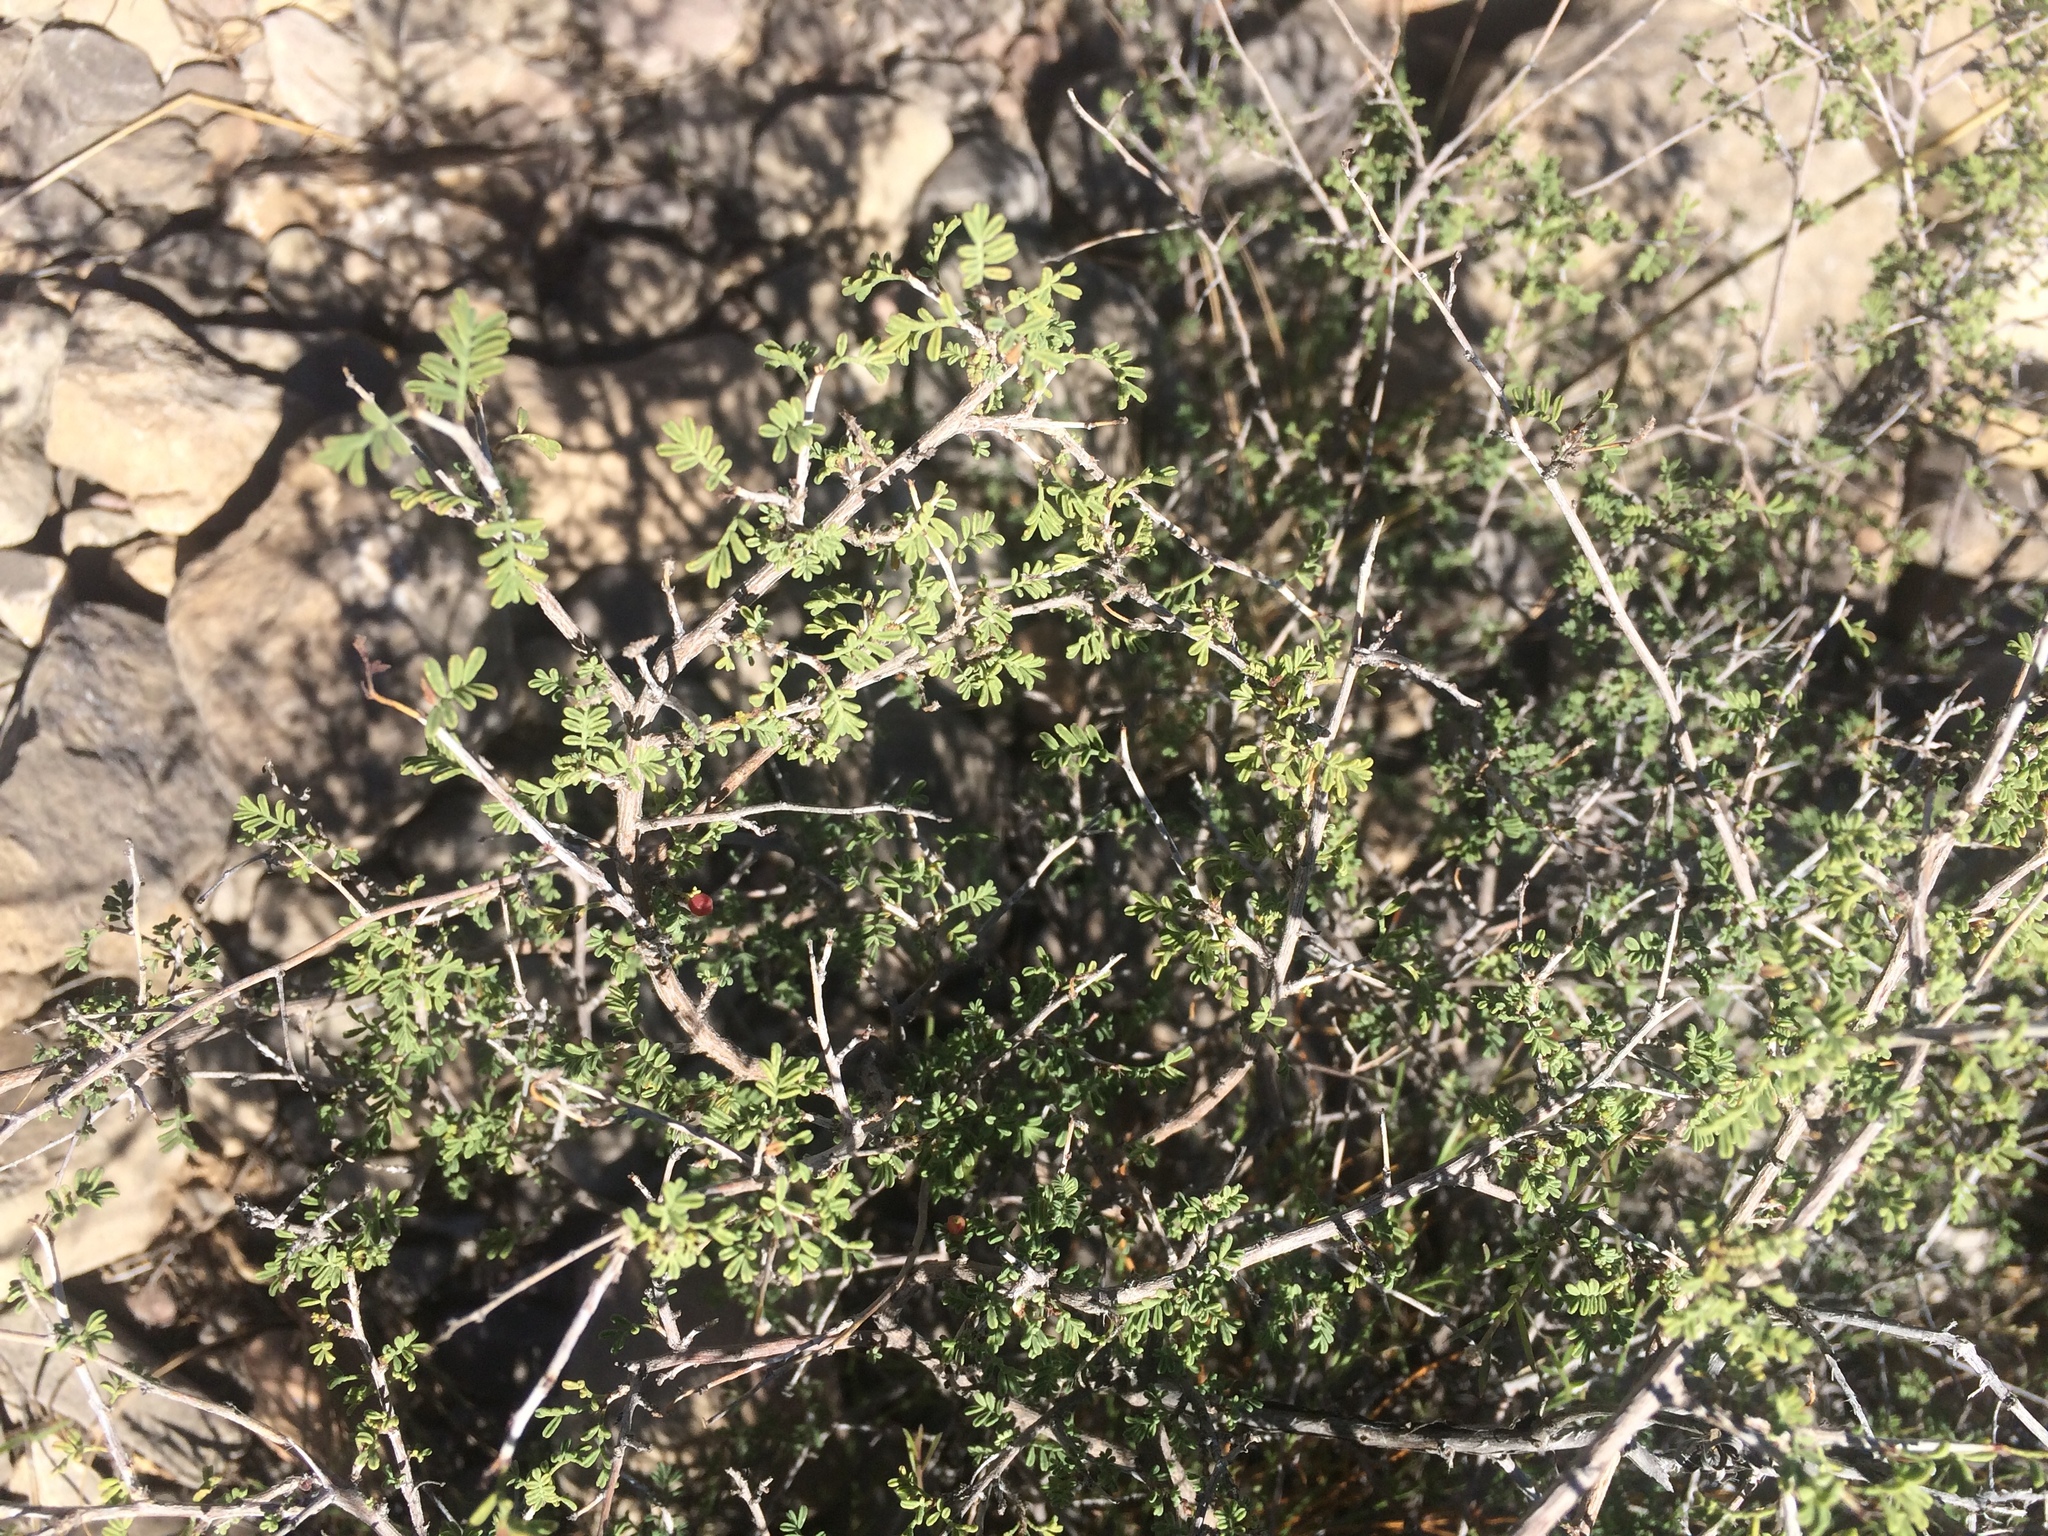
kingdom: Plantae
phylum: Tracheophyta
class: Magnoliopsida
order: Fabales
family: Fabaceae
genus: Dalea
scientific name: Dalea formosa
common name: Feather-plume dalea
